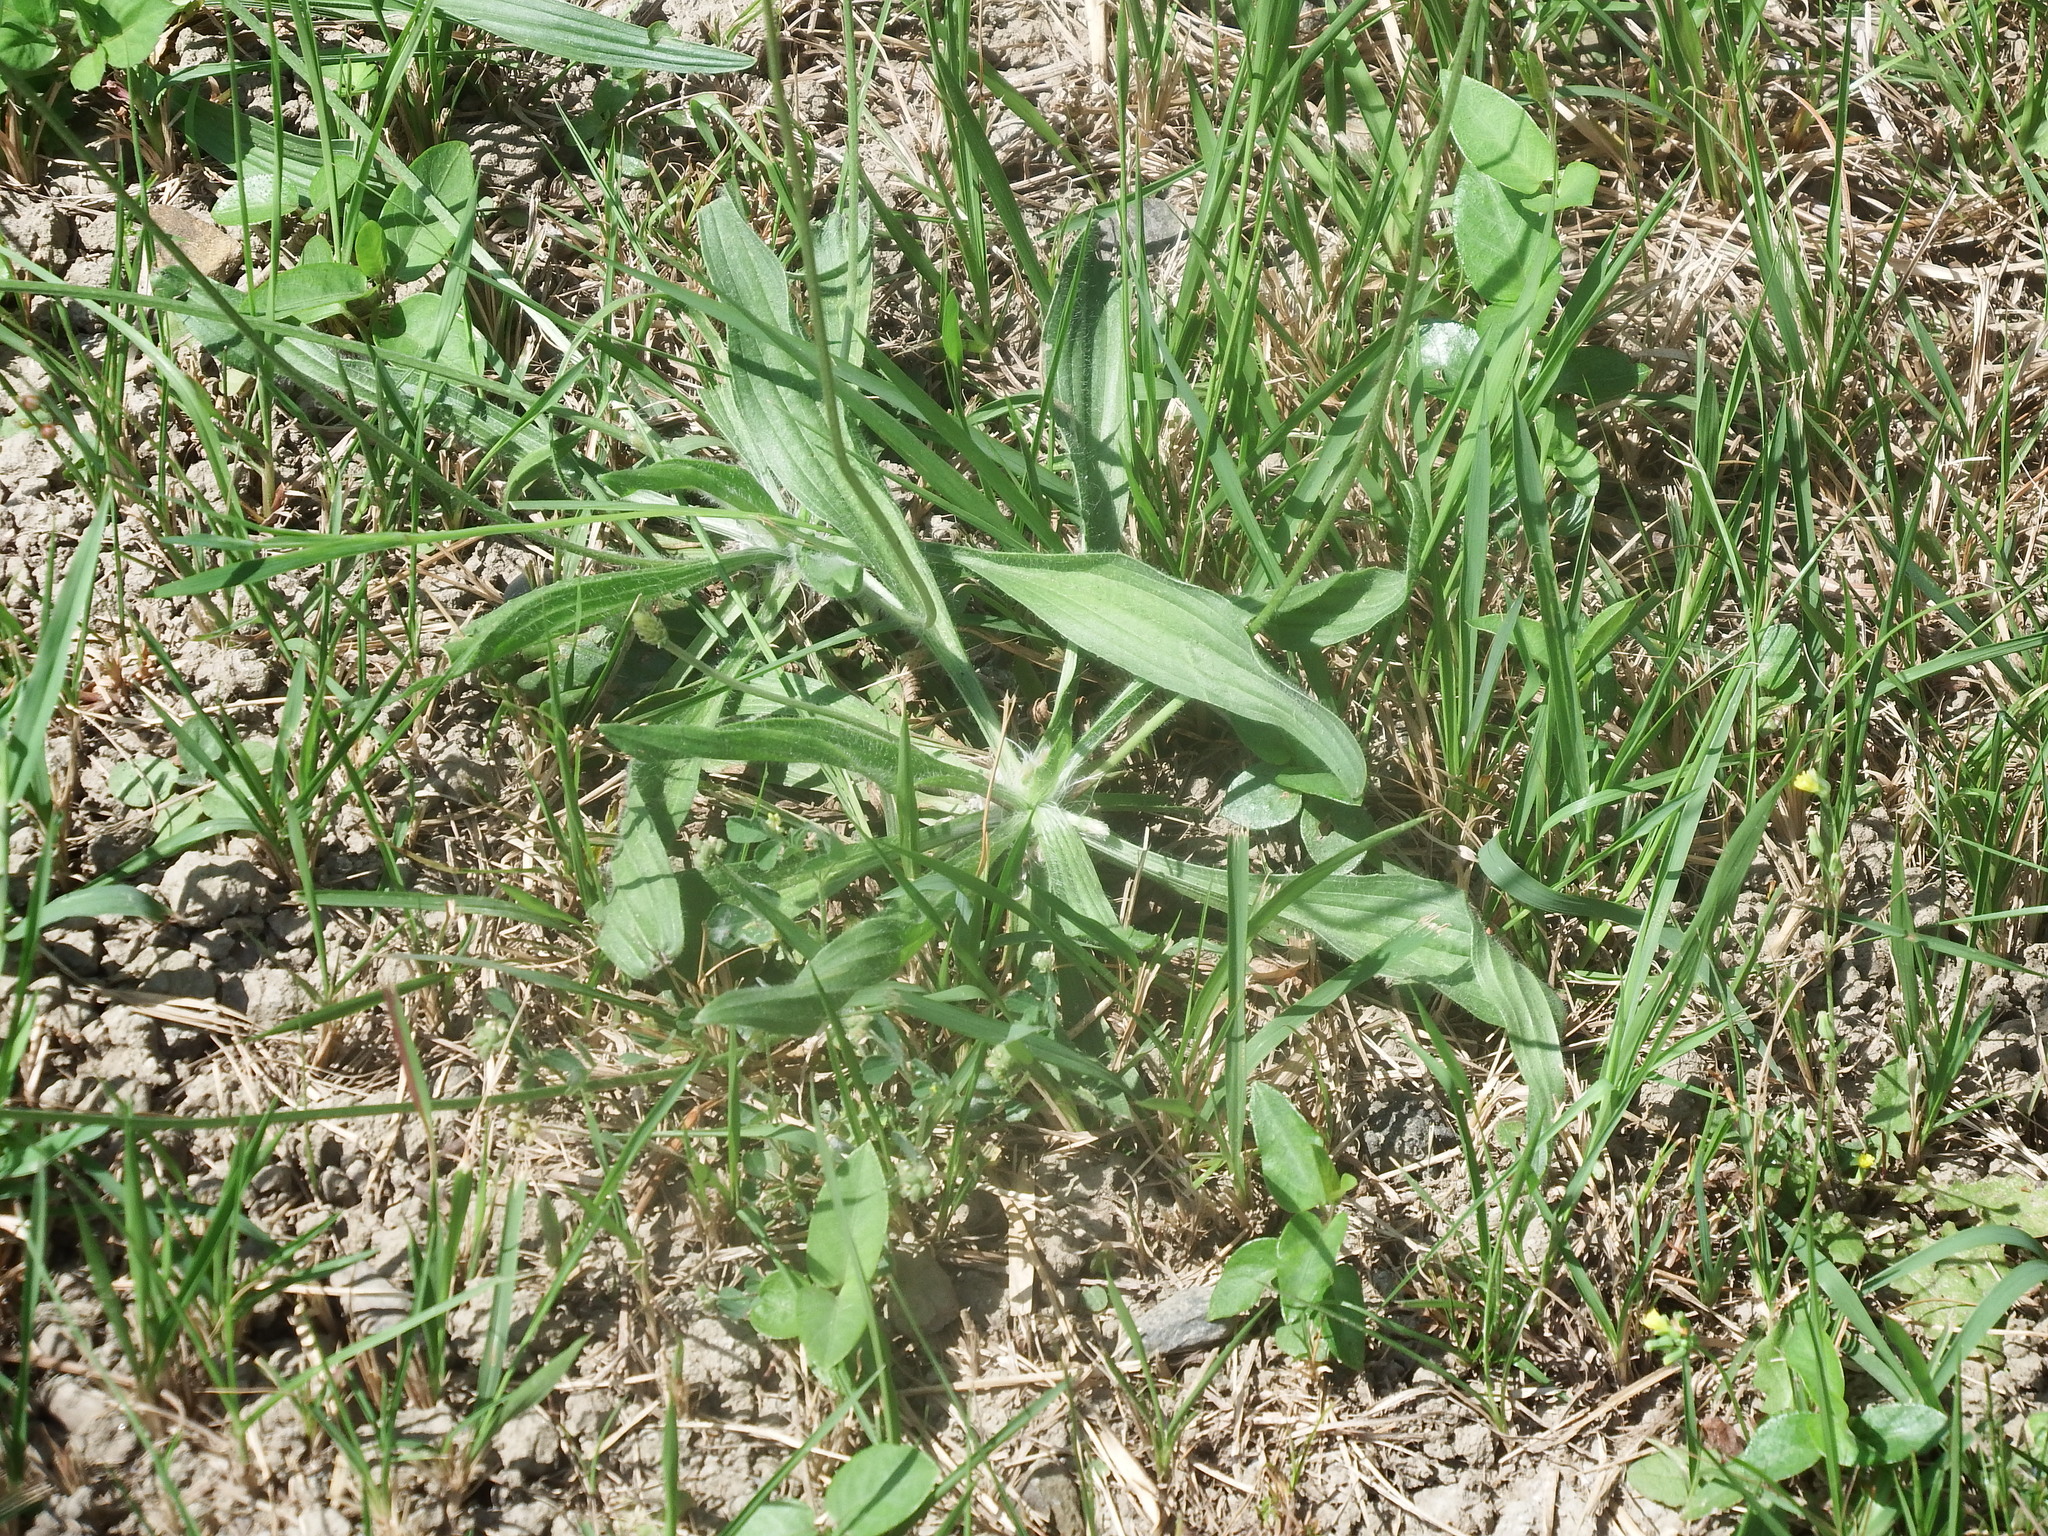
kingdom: Plantae
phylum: Tracheophyta
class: Magnoliopsida
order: Lamiales
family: Plantaginaceae
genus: Plantago
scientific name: Plantago lanceolata
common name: Ribwort plantain
